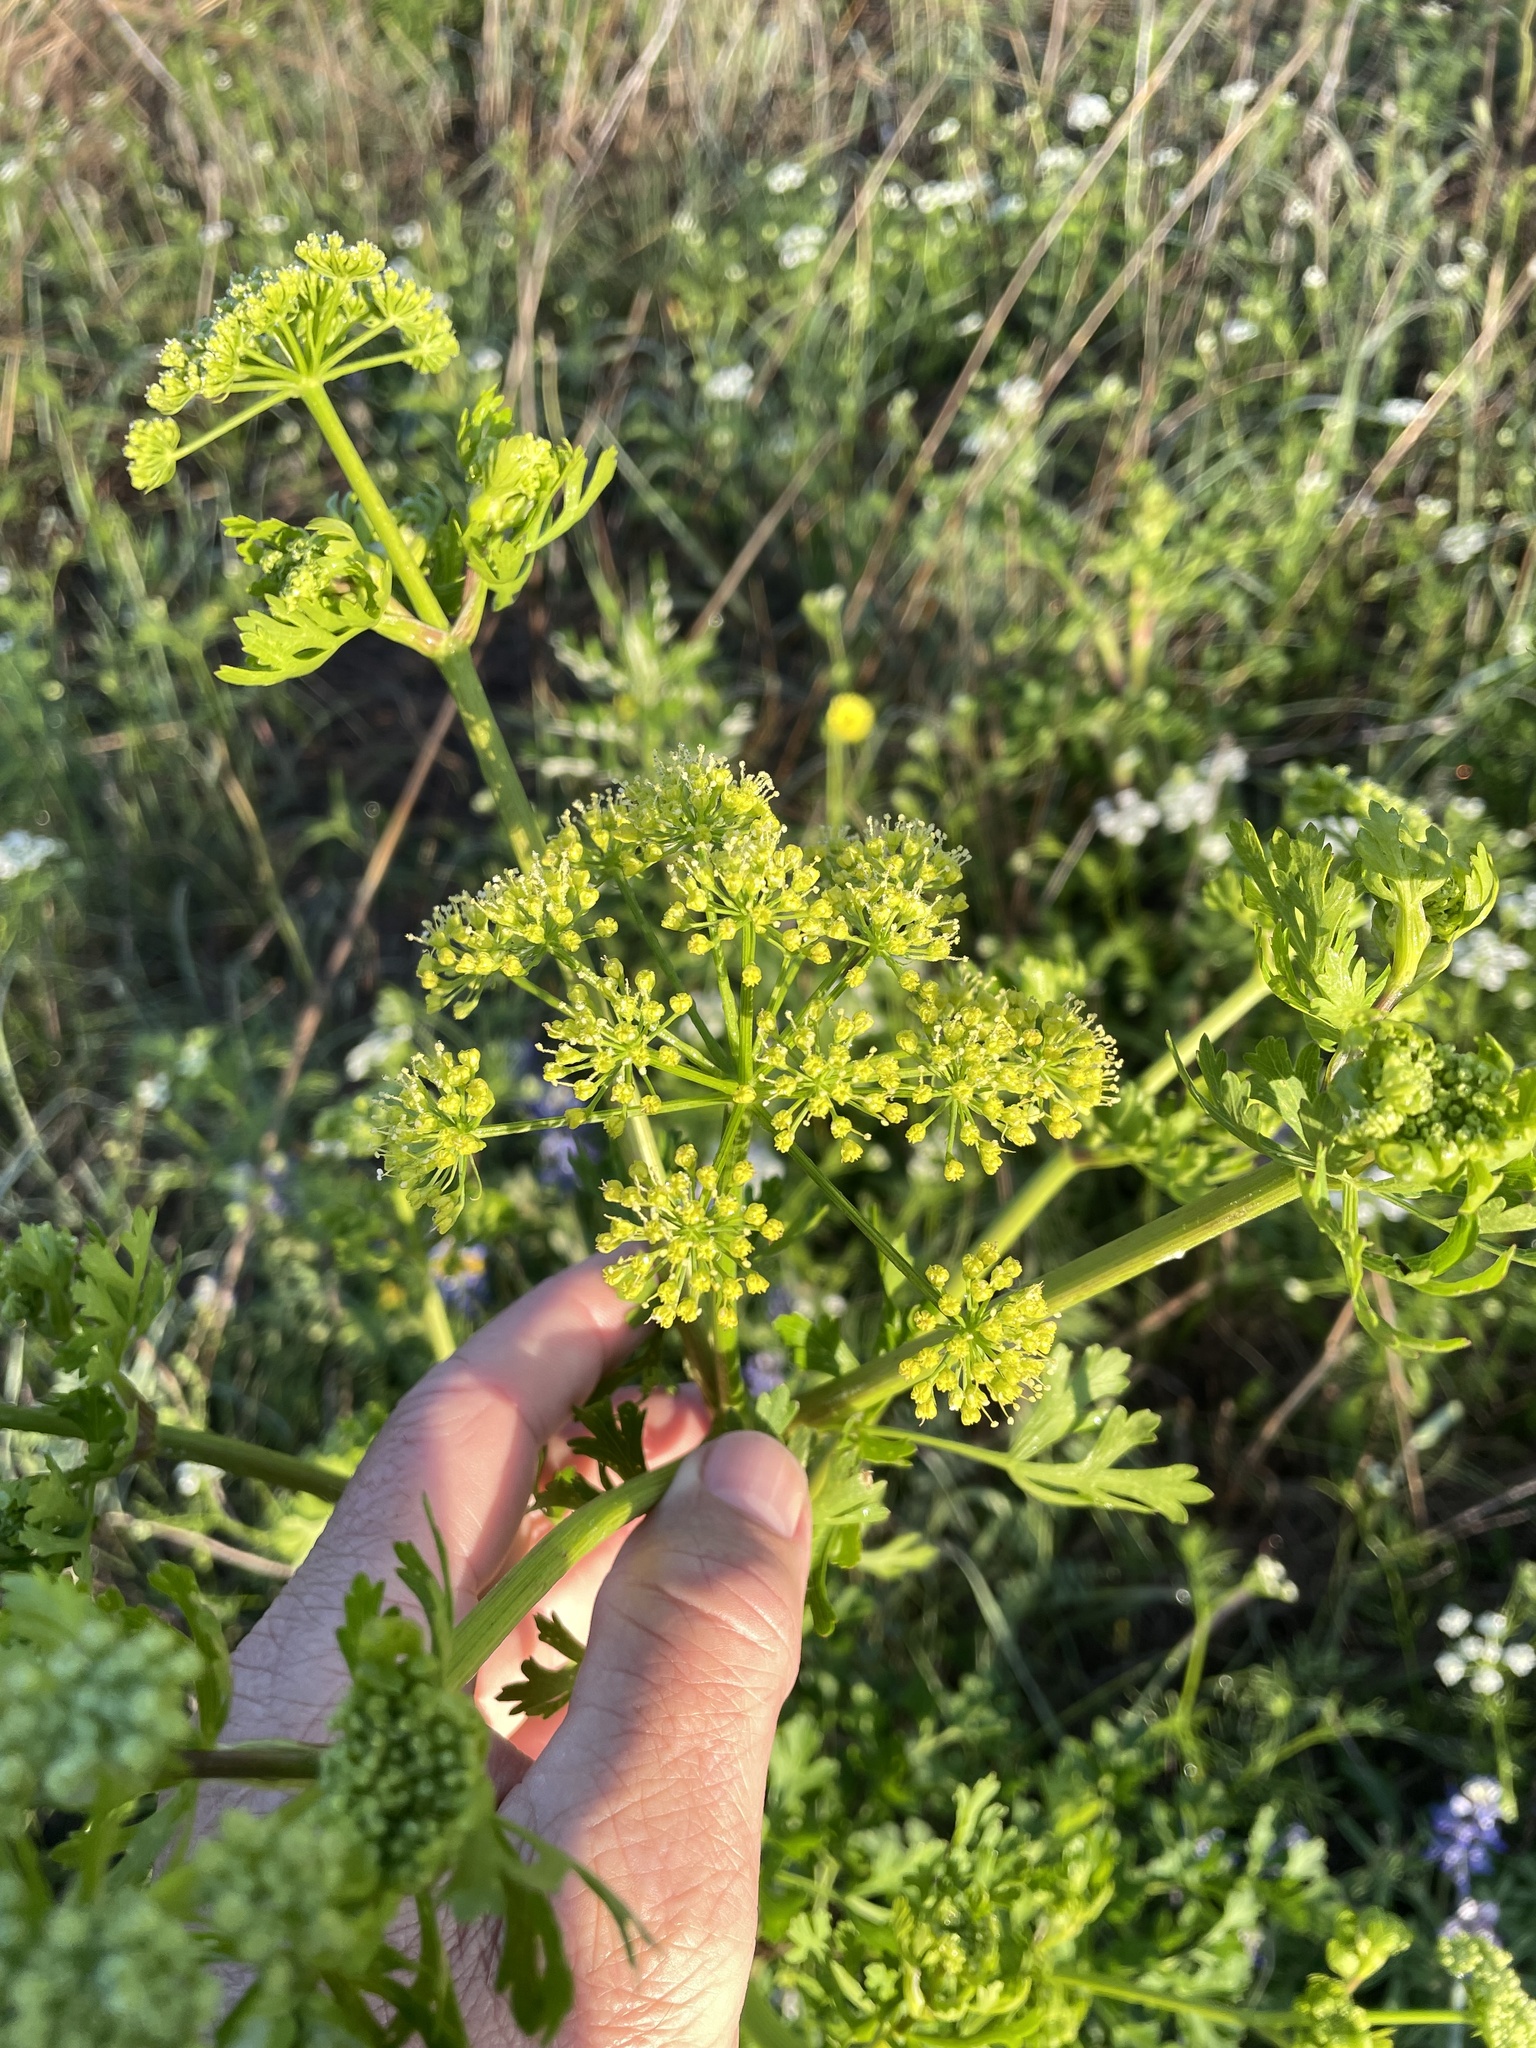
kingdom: Plantae
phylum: Tracheophyta
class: Magnoliopsida
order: Apiales
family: Apiaceae
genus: Polytaenia
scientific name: Polytaenia texana
